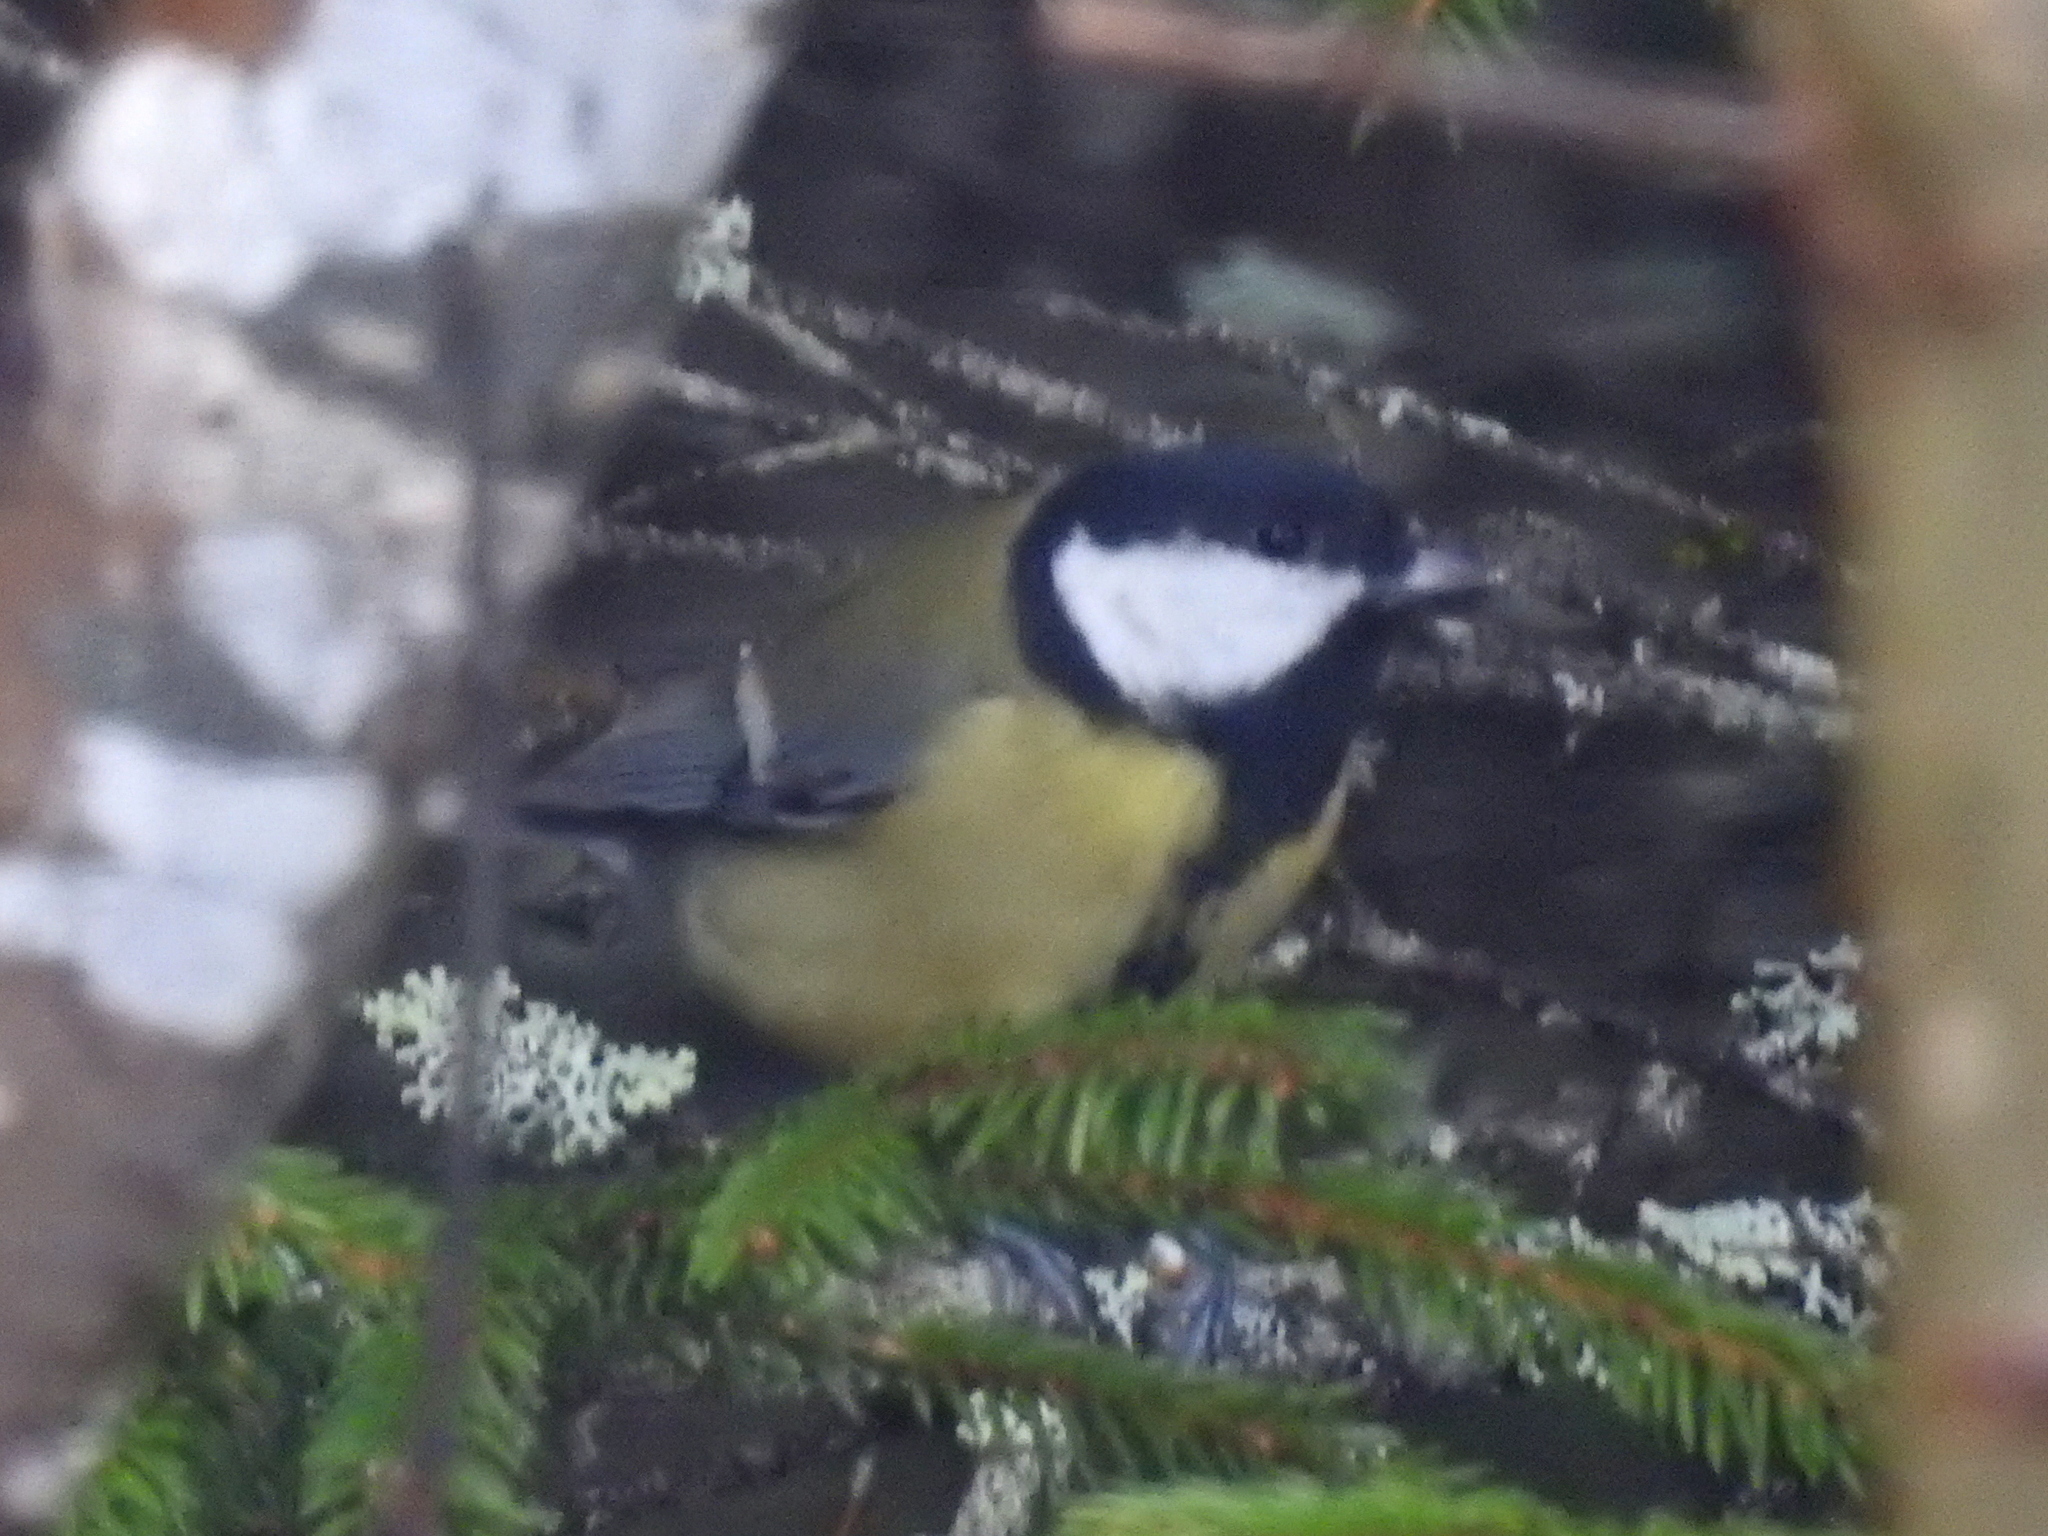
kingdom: Animalia
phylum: Chordata
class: Aves
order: Passeriformes
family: Paridae
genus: Parus
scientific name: Parus major
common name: Great tit
